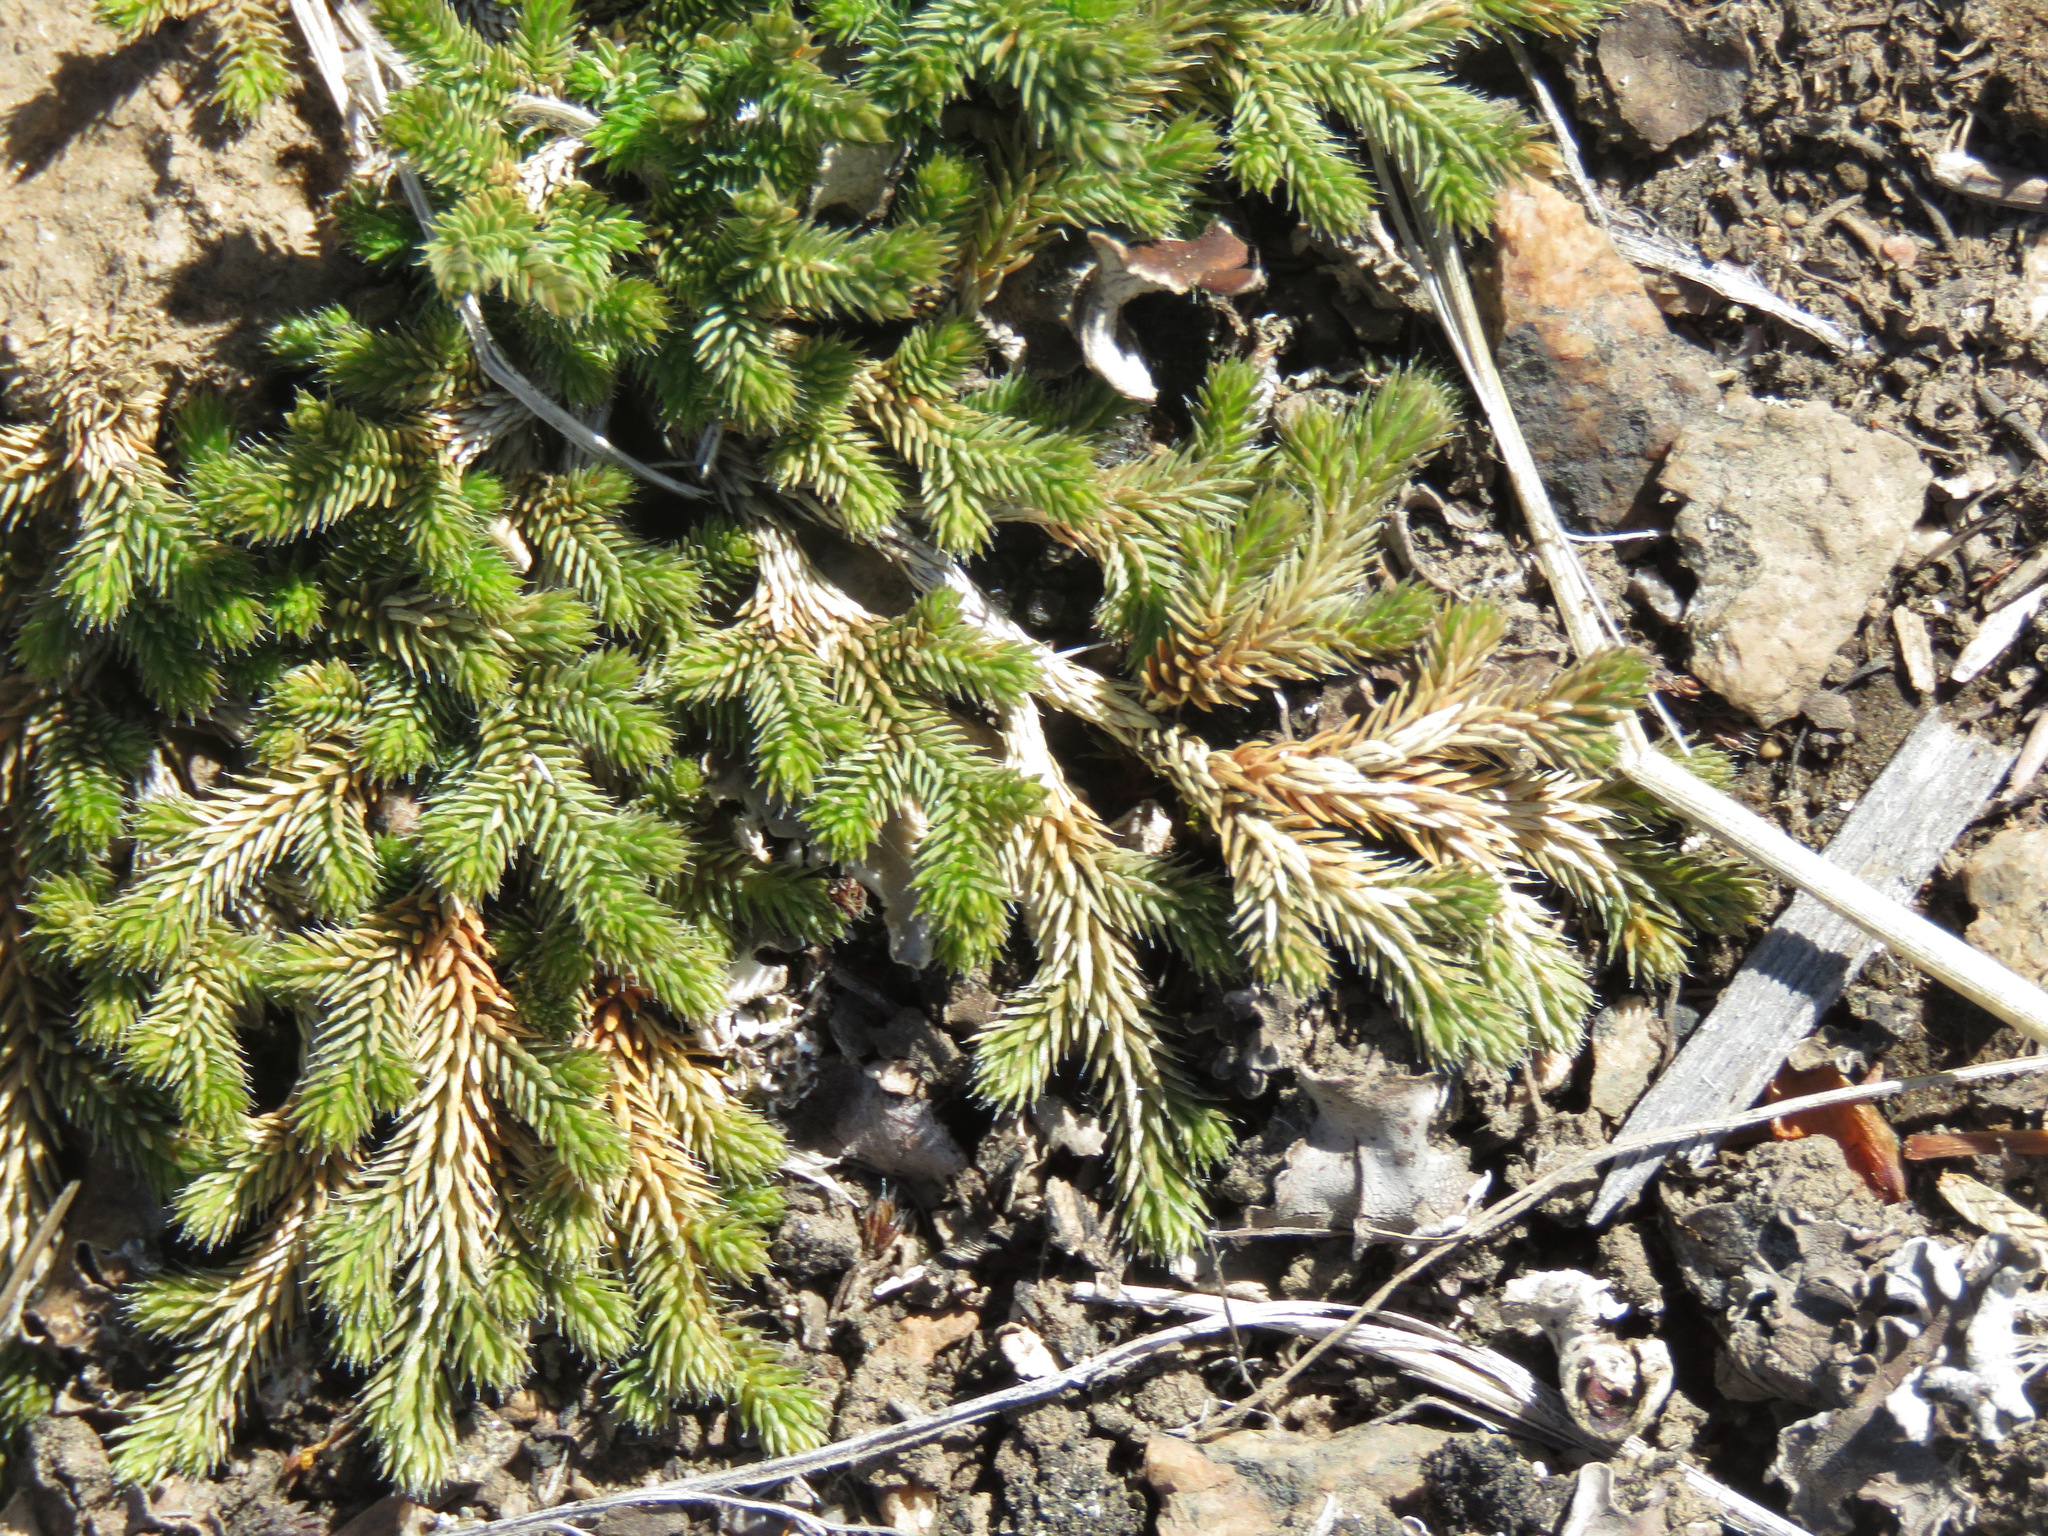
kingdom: Plantae
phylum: Tracheophyta
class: Lycopodiopsida
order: Selaginellales
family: Selaginellaceae
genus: Selaginella
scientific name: Selaginella wallacei
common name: Wallace's selaginella
